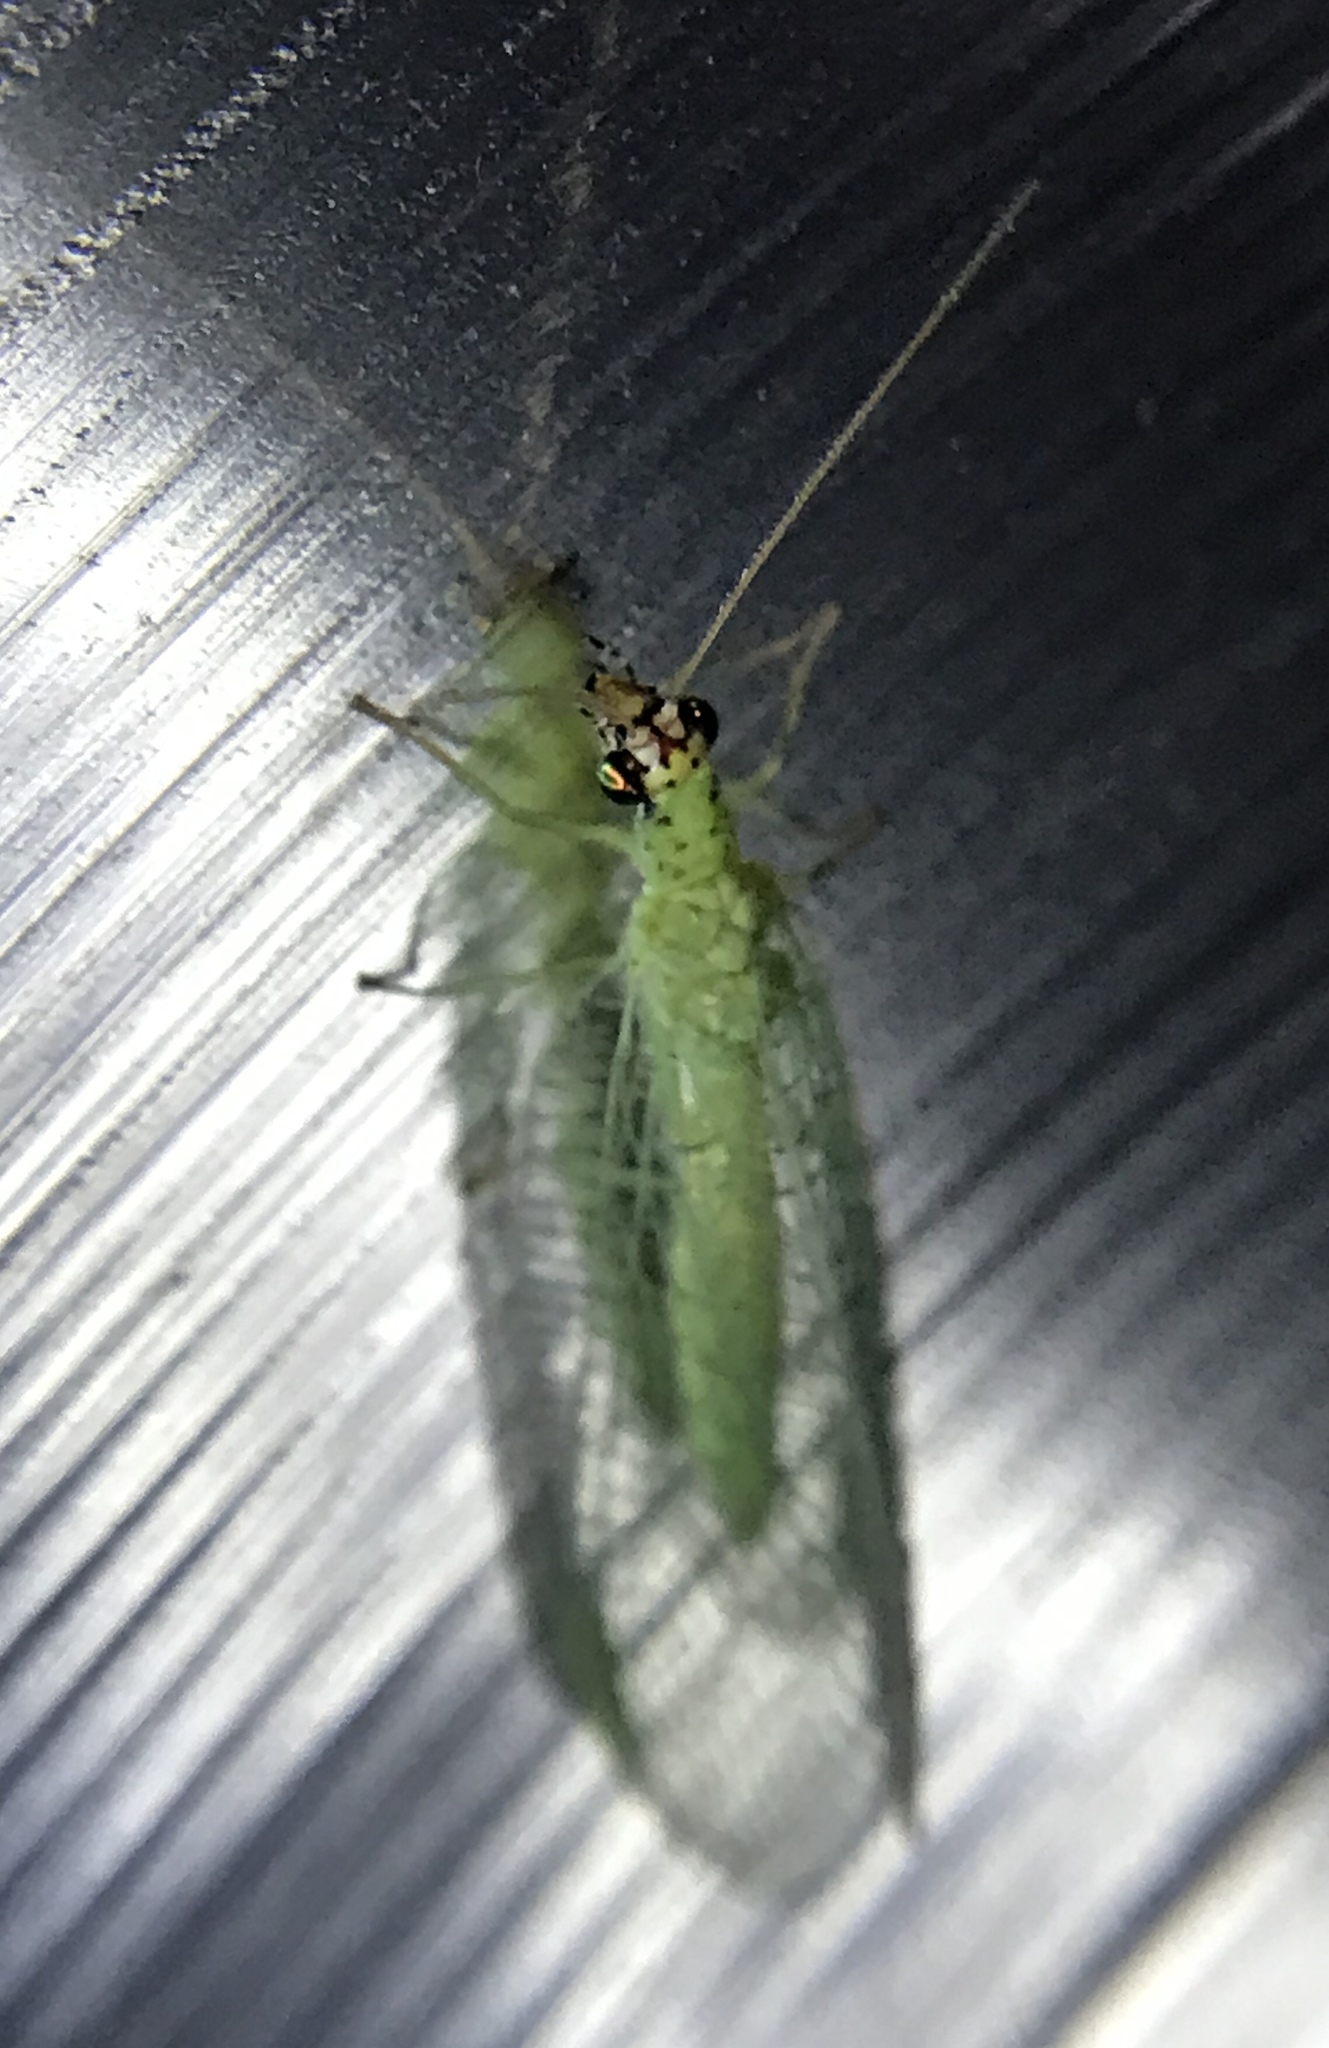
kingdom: Animalia
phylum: Arthropoda
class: Insecta
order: Neuroptera
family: Chrysopidae
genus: Chrysopa
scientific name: Chrysopa oculata
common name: Golden-eyed lacewing
